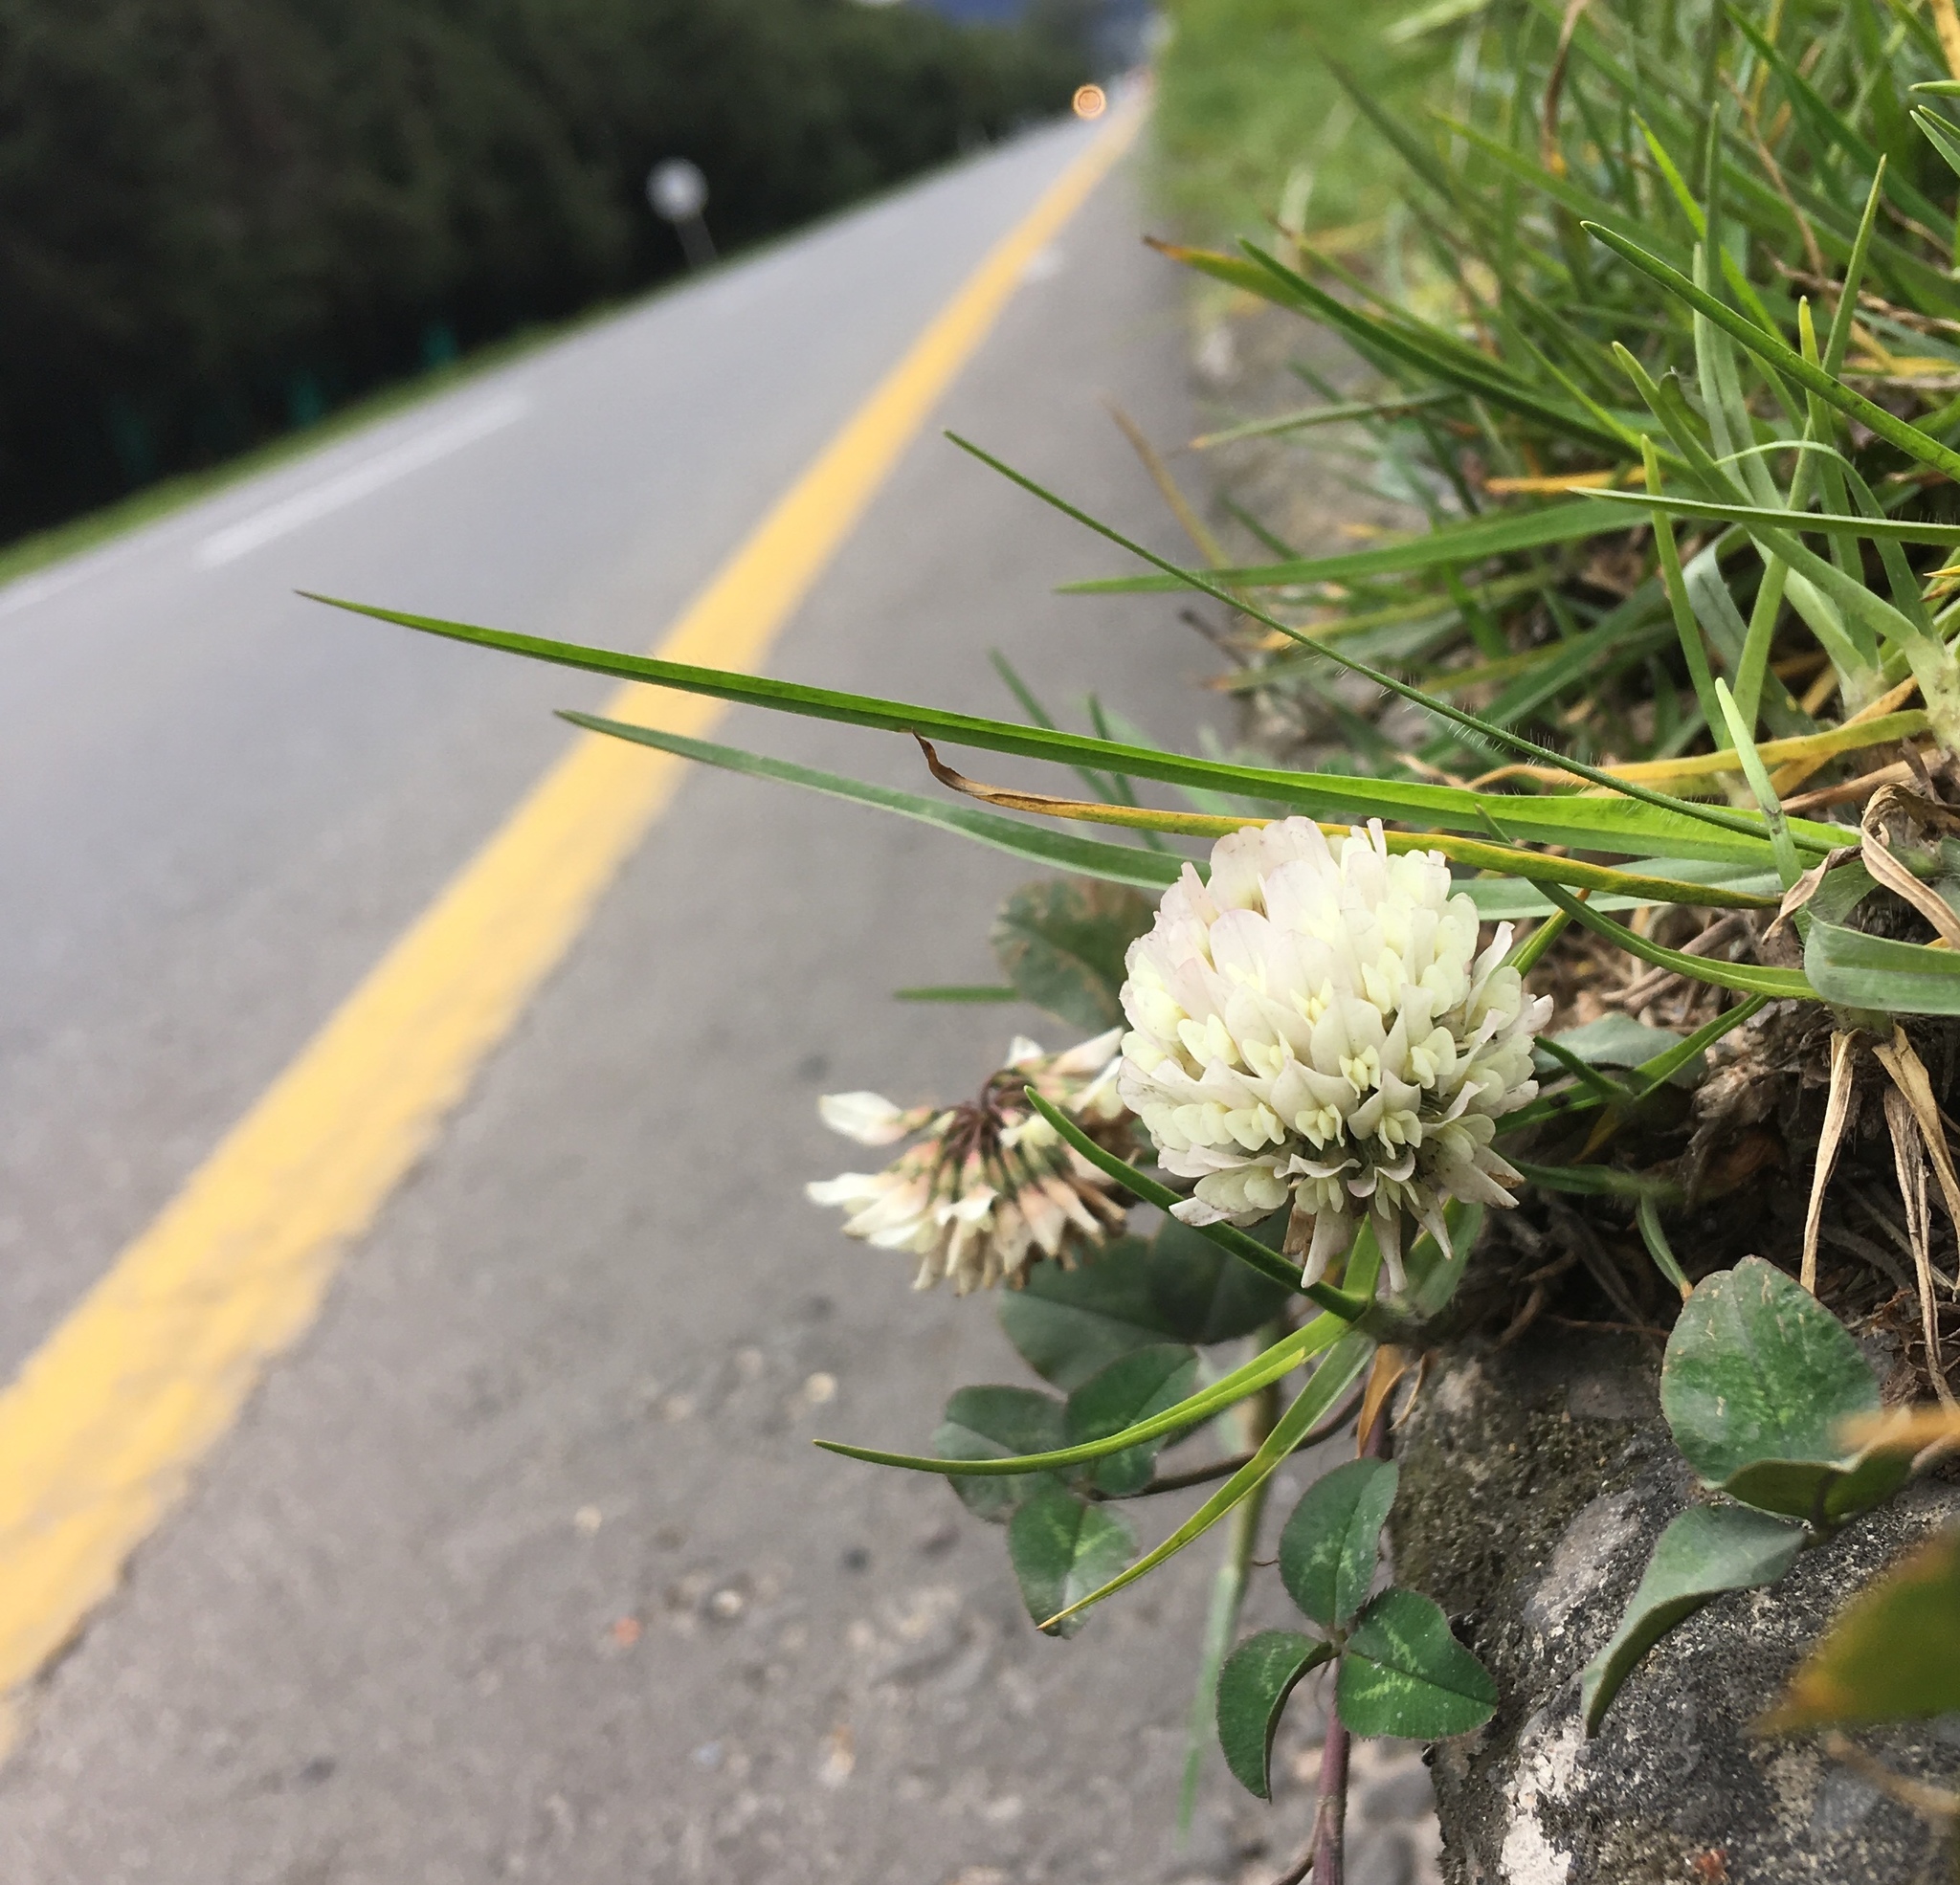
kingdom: Plantae
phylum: Tracheophyta
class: Magnoliopsida
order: Fabales
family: Fabaceae
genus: Trifolium
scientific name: Trifolium repens
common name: White clover
